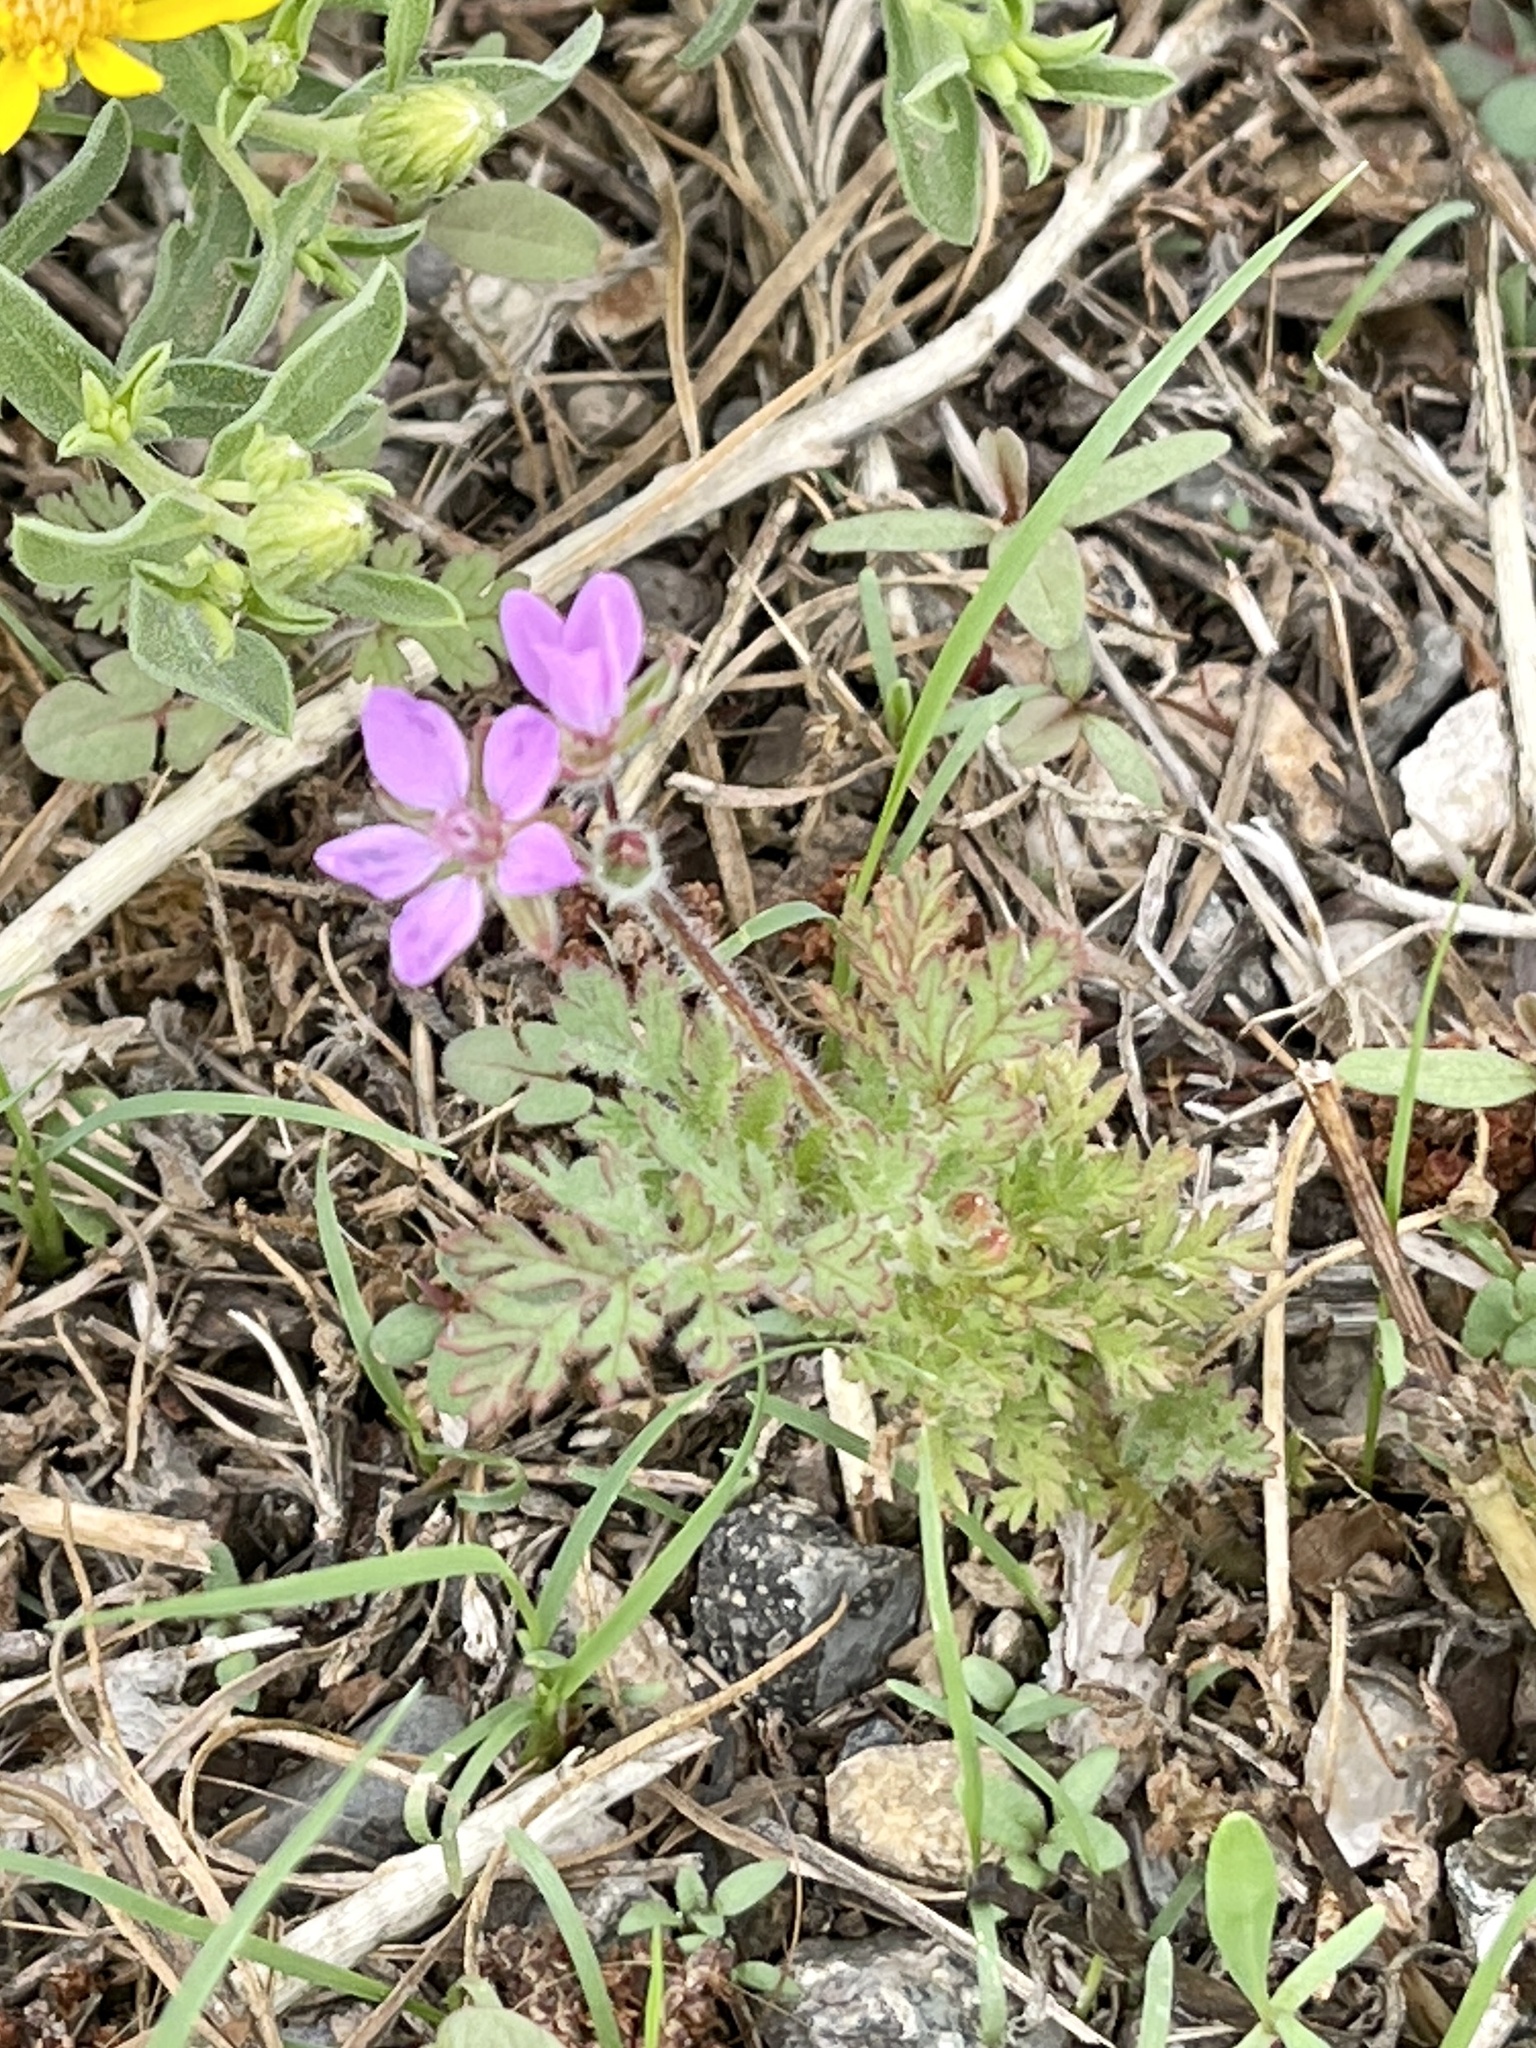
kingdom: Plantae
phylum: Tracheophyta
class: Magnoliopsida
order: Geraniales
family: Geraniaceae
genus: Erodium
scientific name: Erodium cicutarium
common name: Common stork's-bill
